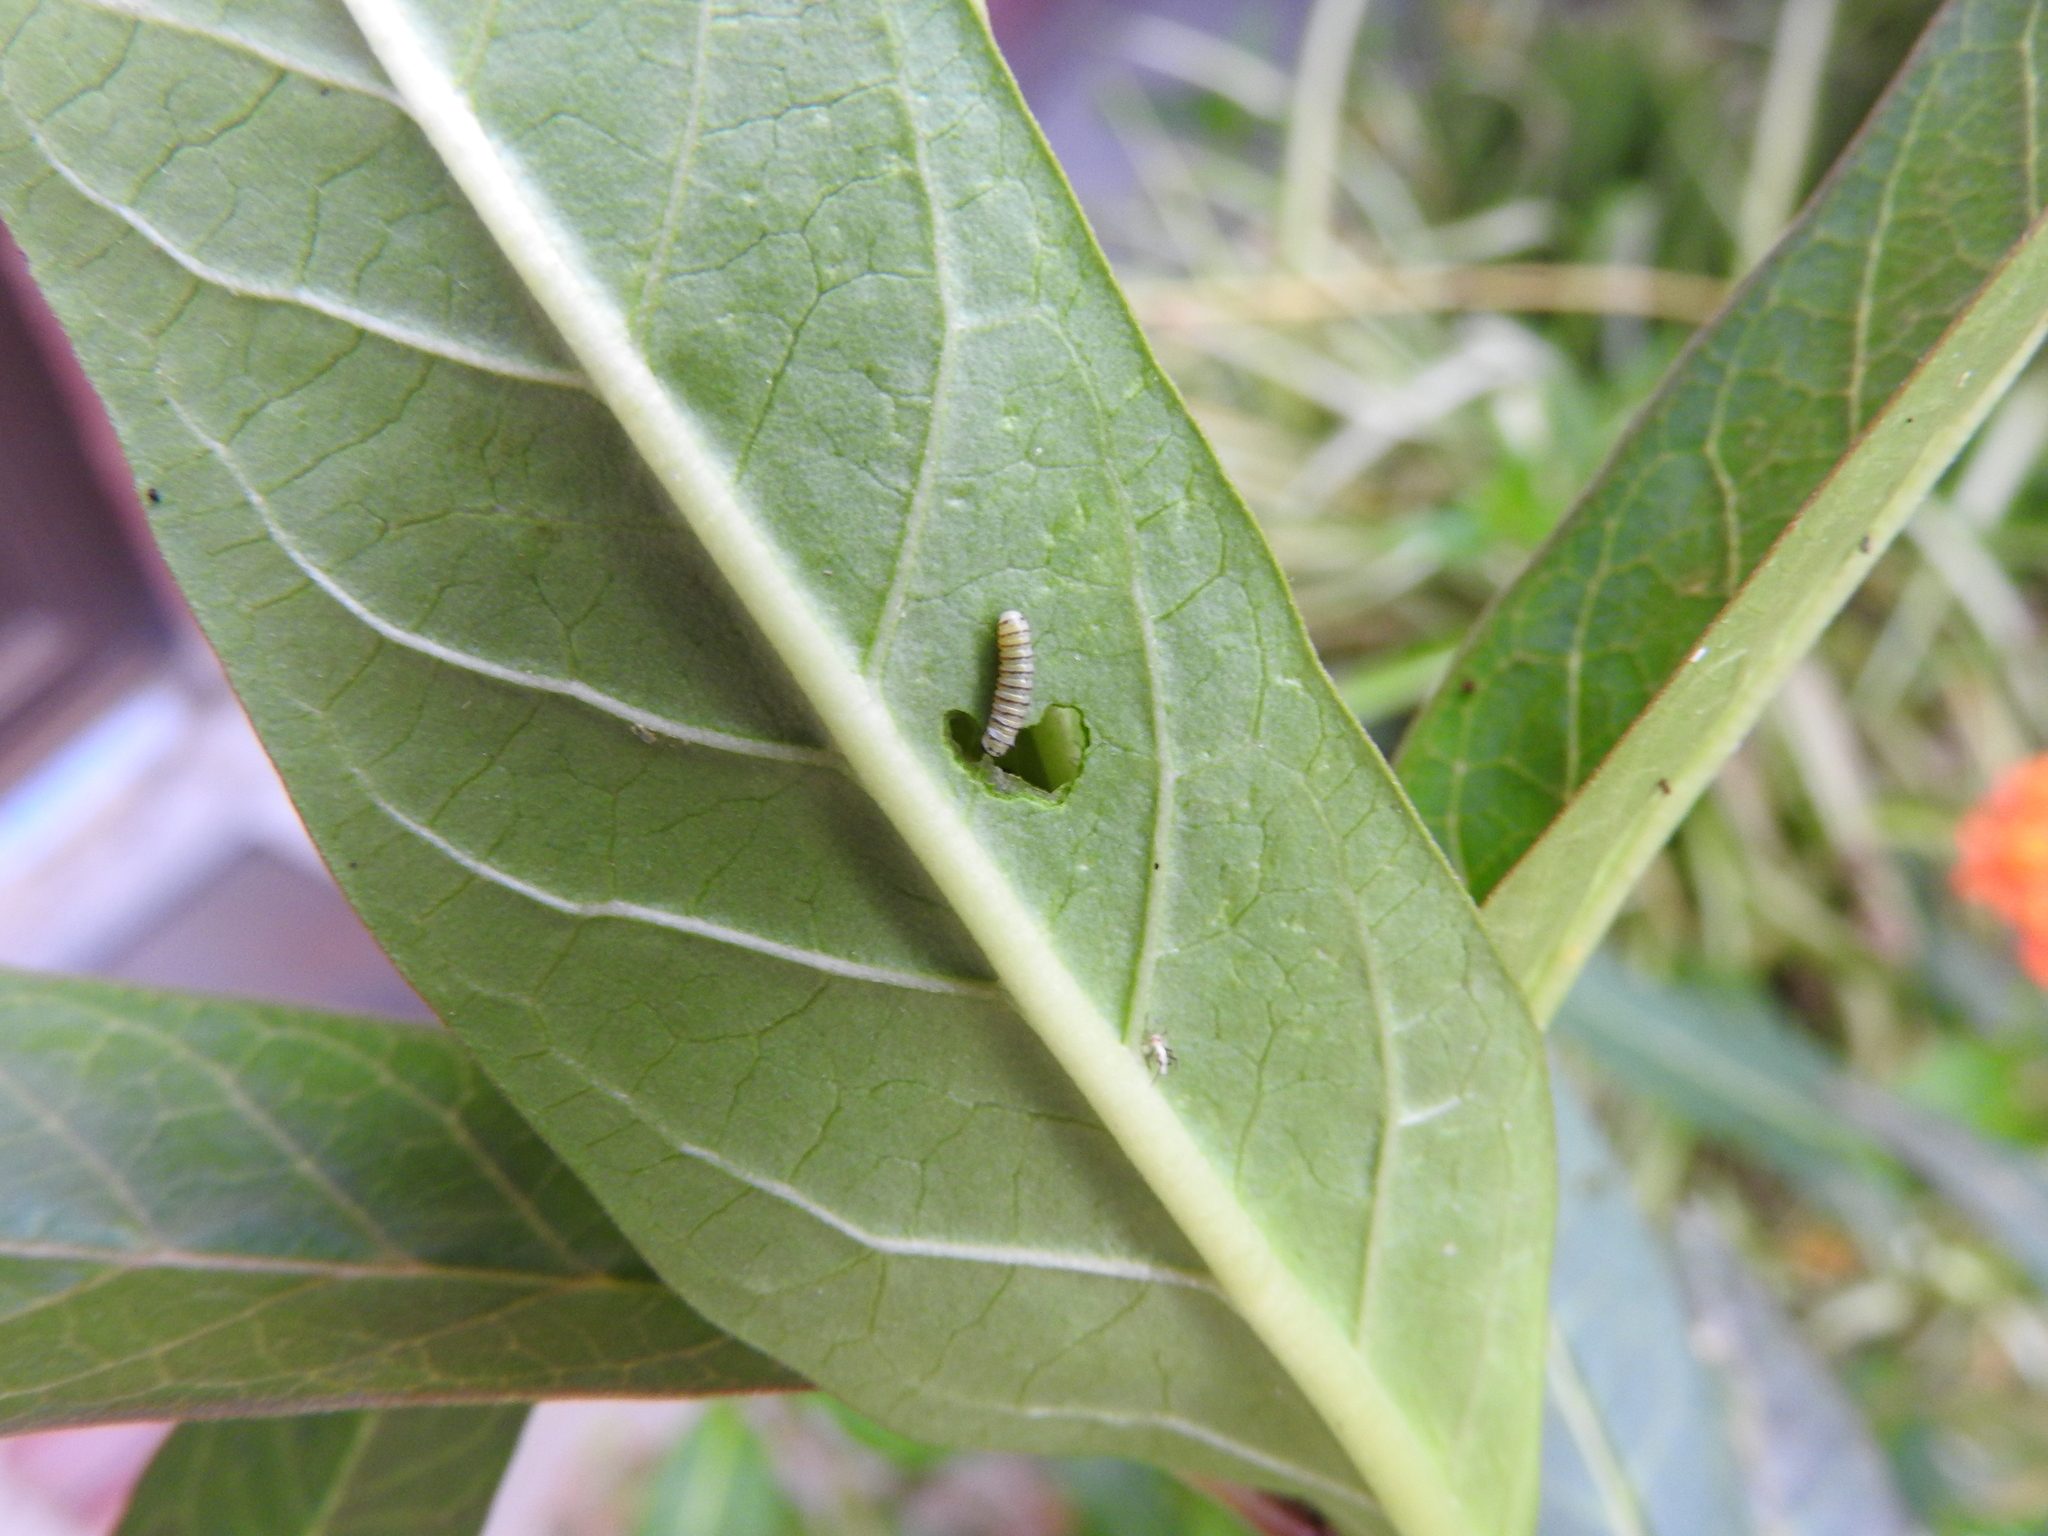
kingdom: Animalia
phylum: Arthropoda
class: Insecta
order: Lepidoptera
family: Nymphalidae
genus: Danaus
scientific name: Danaus plexippus
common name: Monarch
